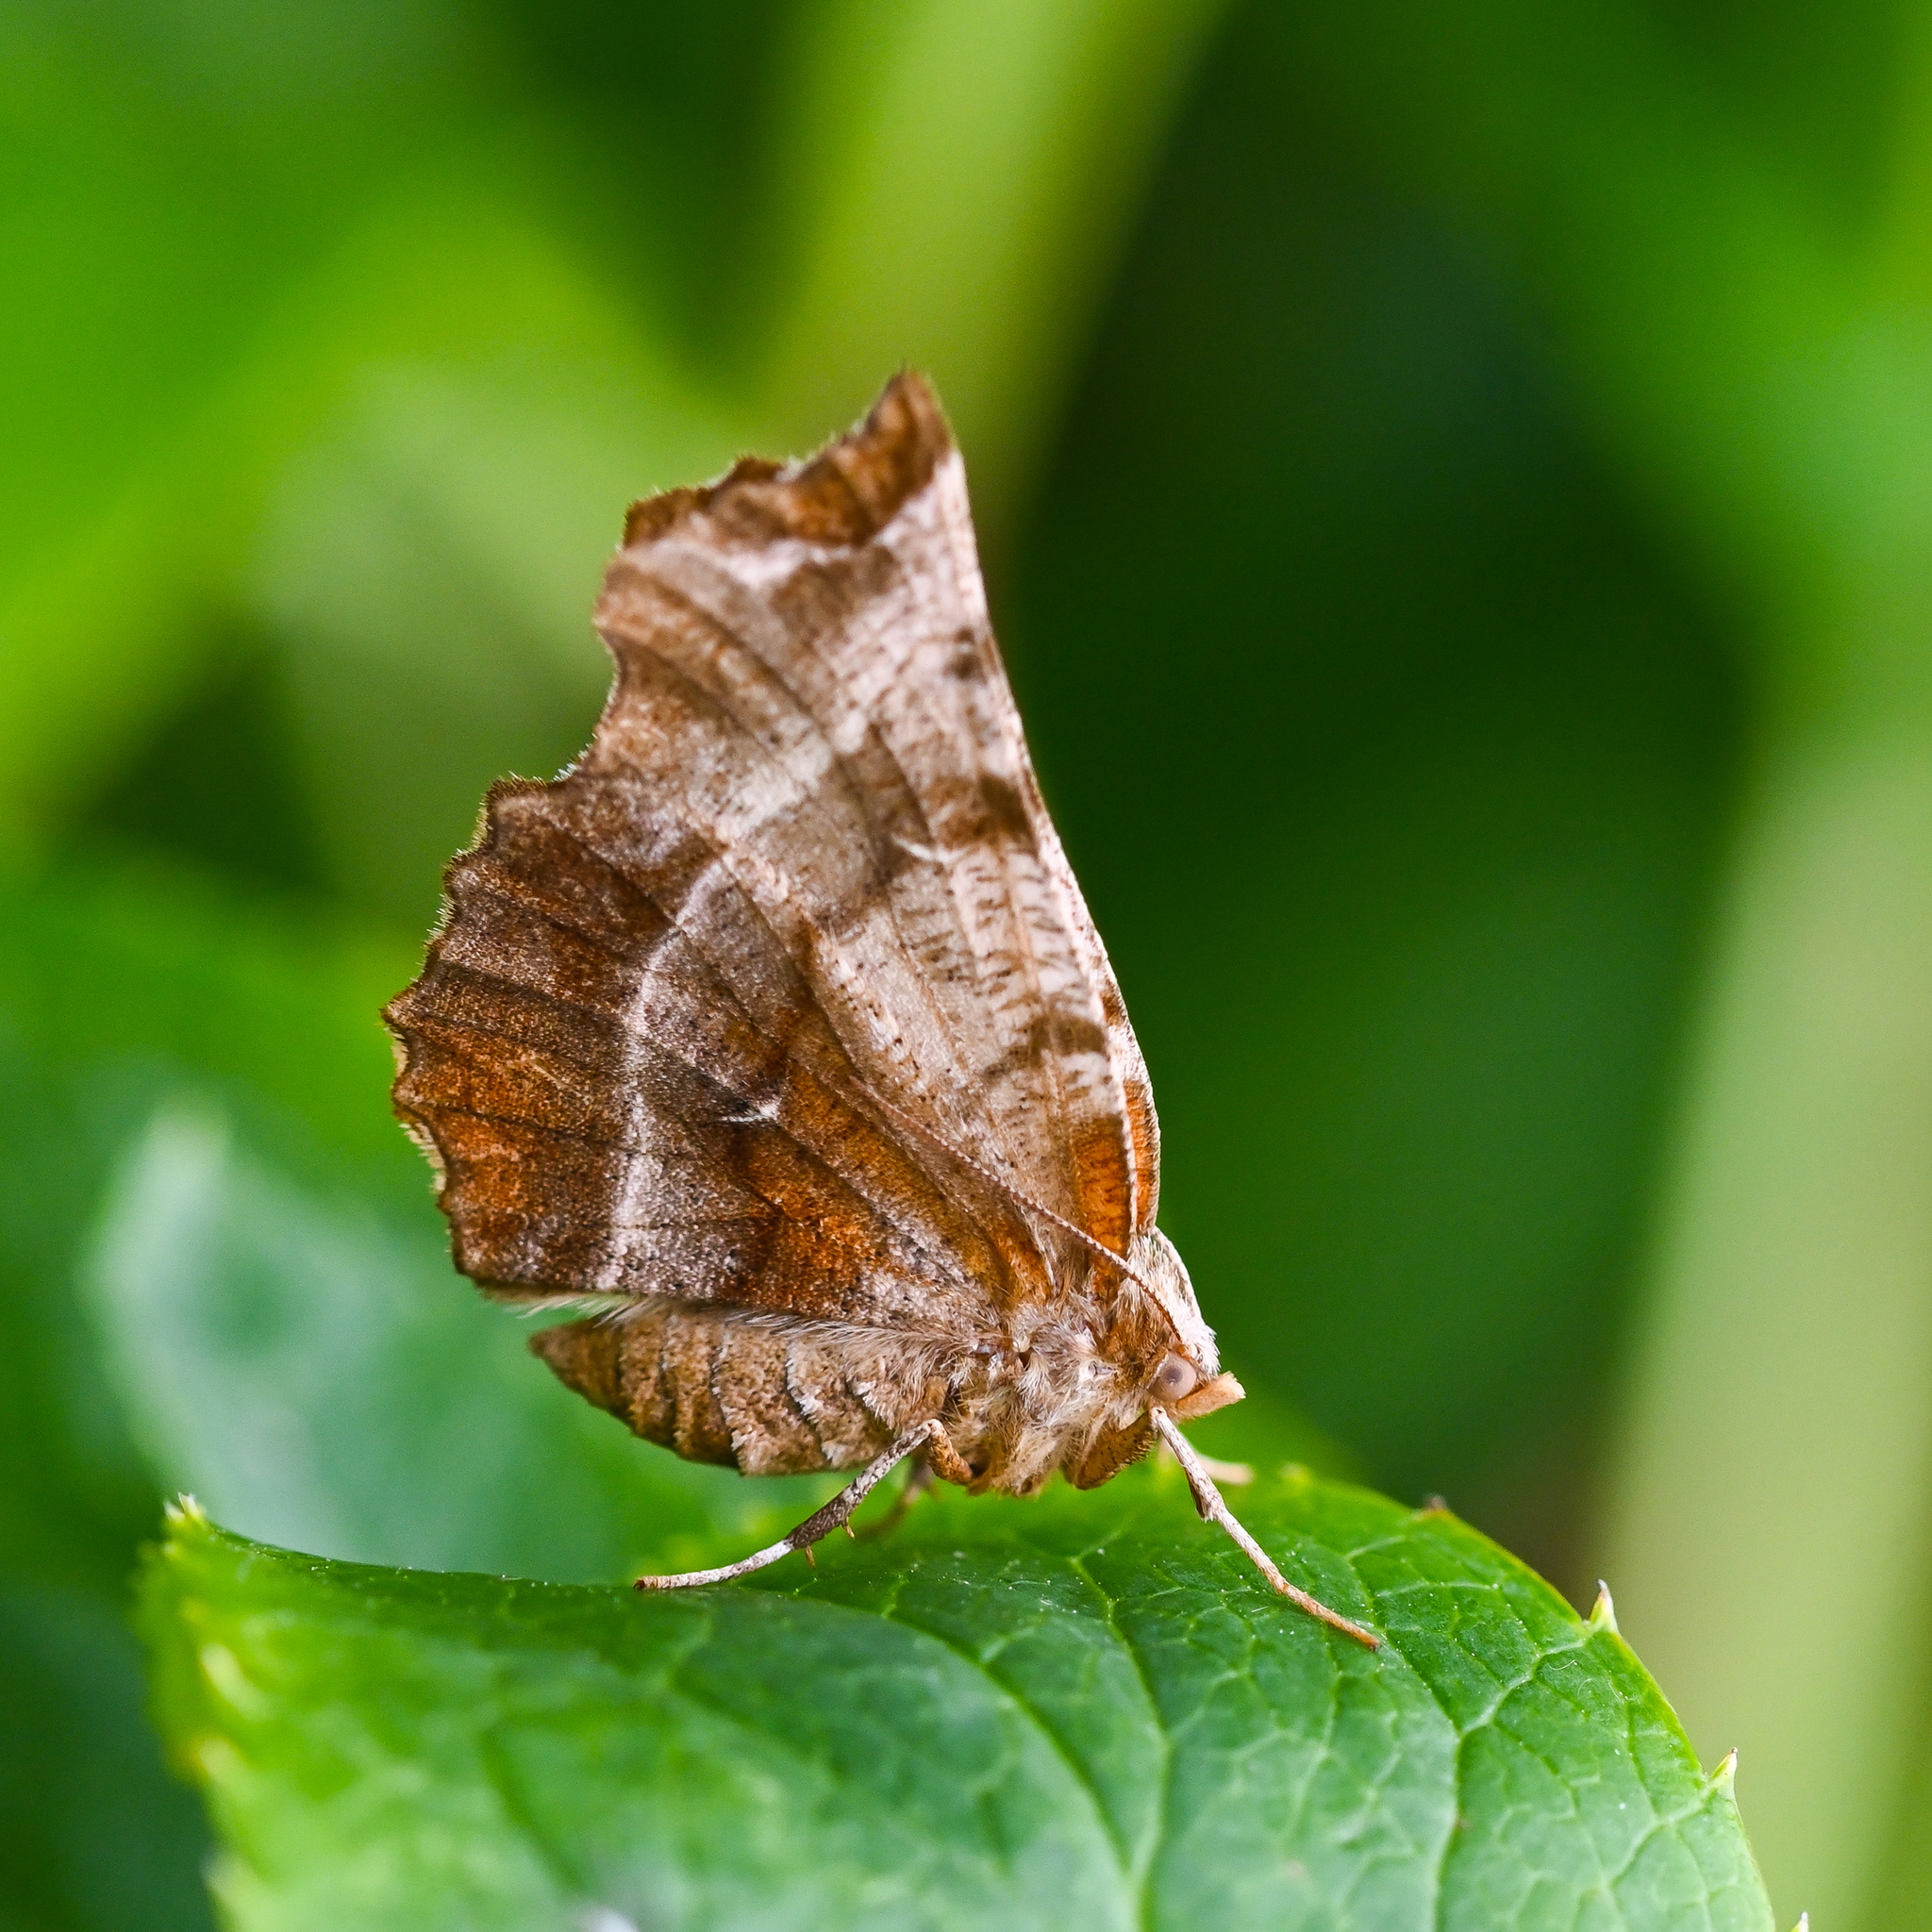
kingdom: Animalia
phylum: Arthropoda
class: Insecta
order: Lepidoptera
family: Geometridae
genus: Selenia
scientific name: Selenia dentaria
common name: Early thorn
